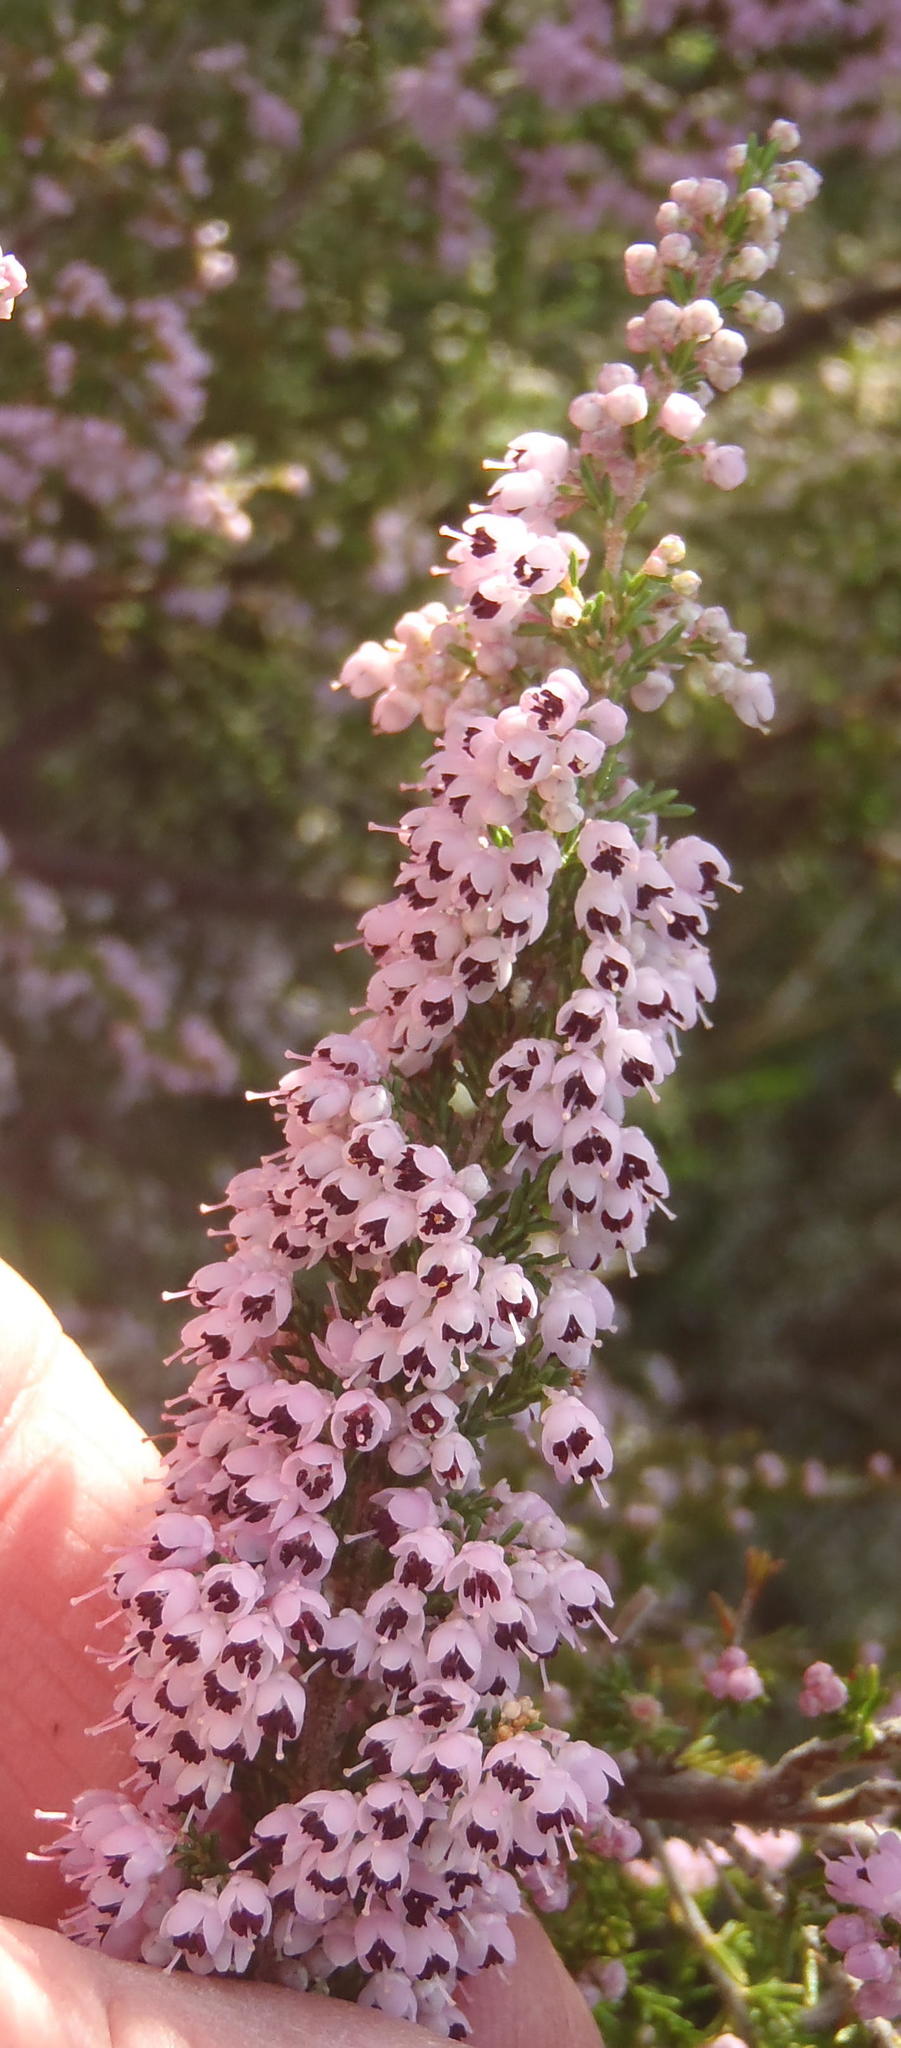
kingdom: Plantae
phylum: Tracheophyta
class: Magnoliopsida
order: Ericales
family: Ericaceae
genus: Erica
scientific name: Erica sparsa
